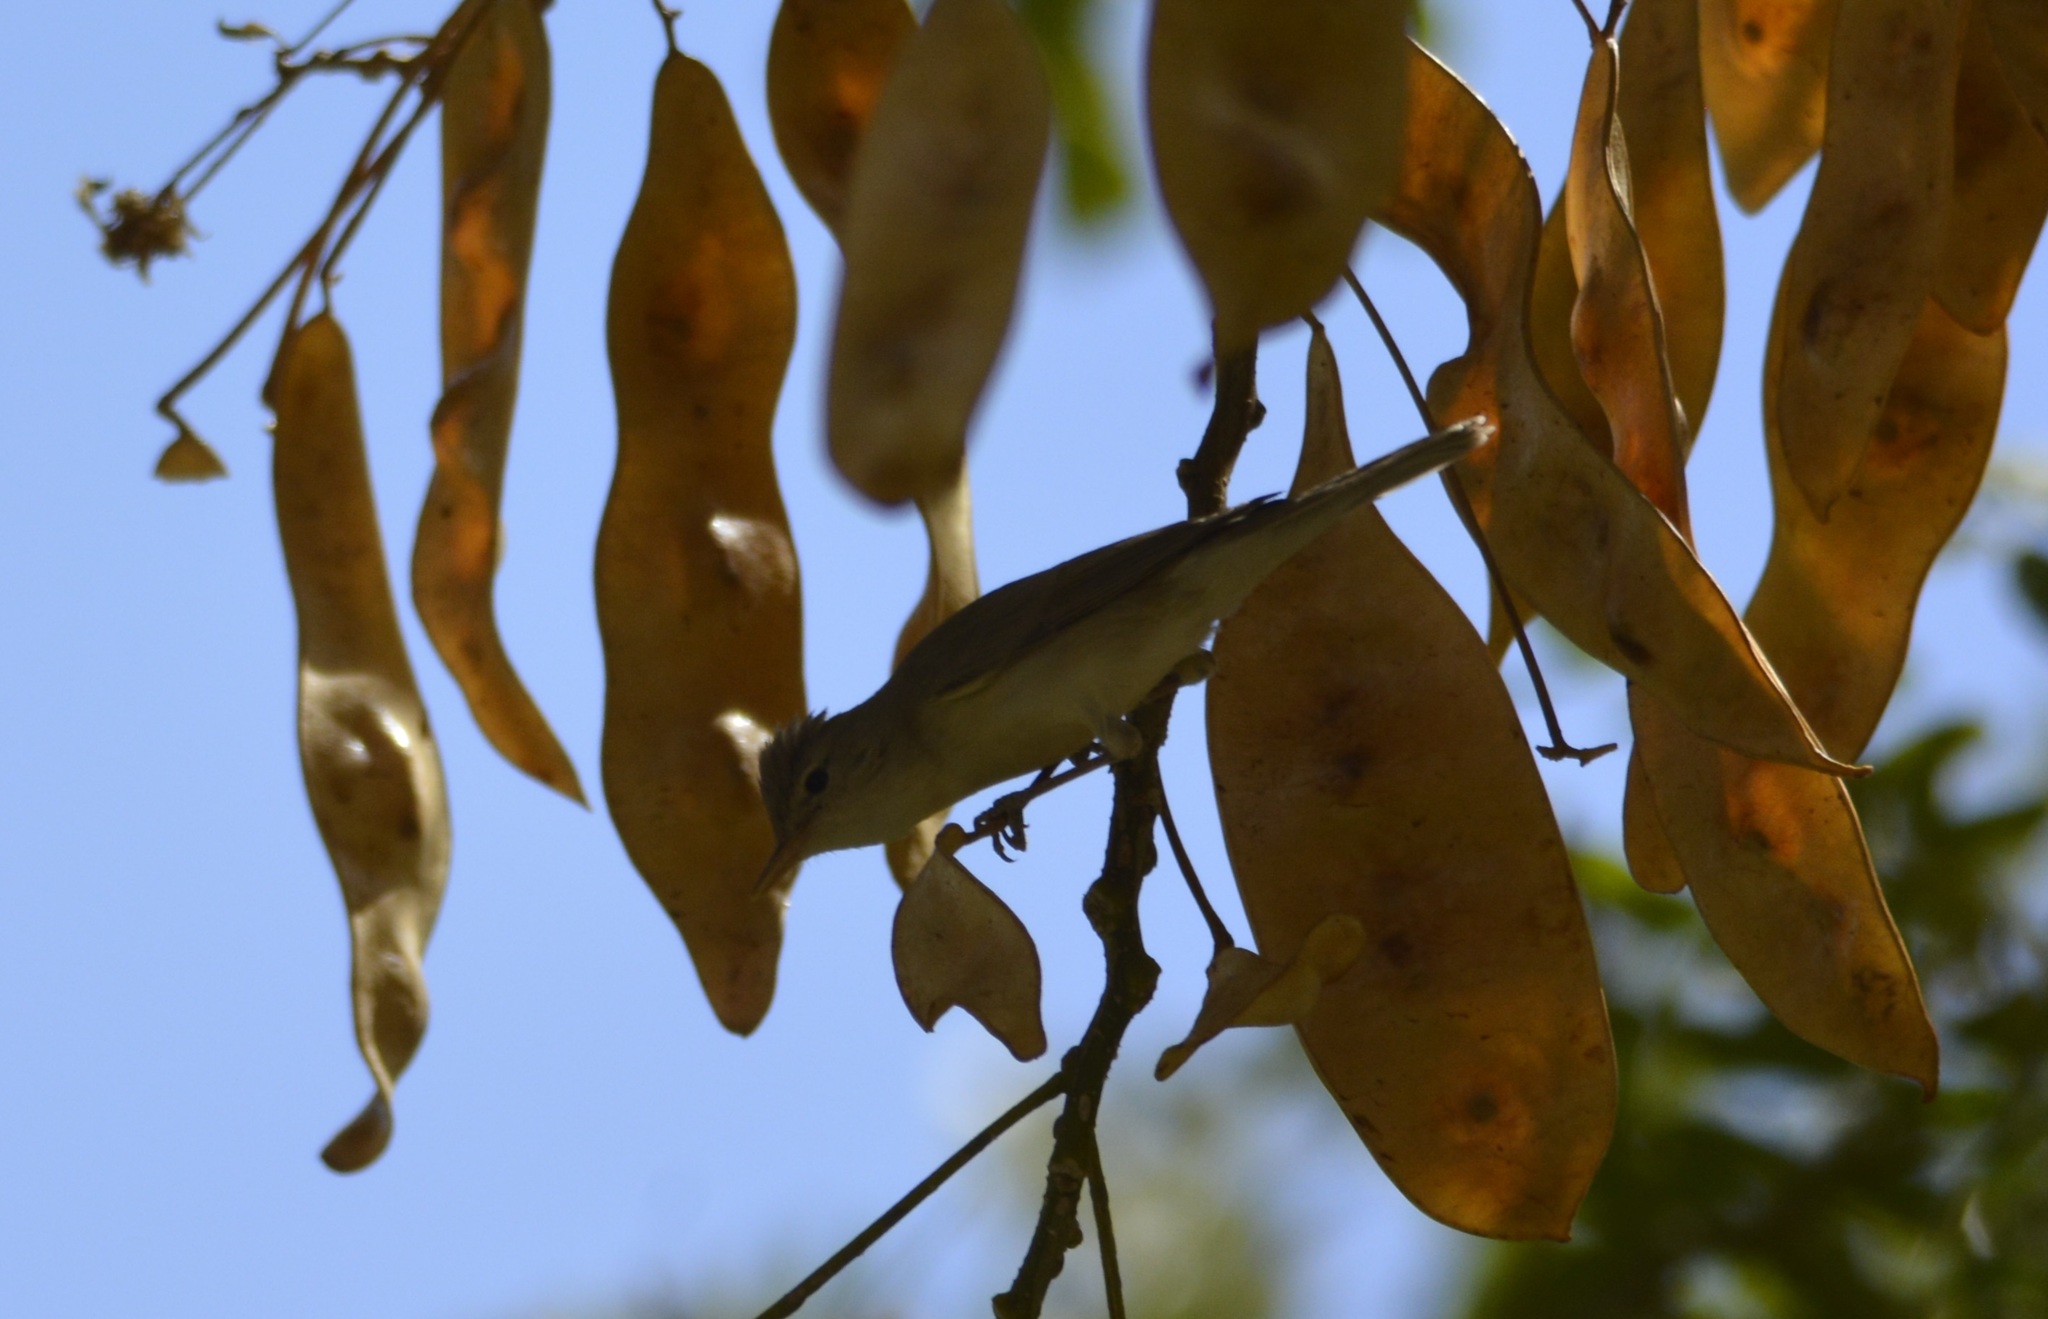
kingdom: Animalia
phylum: Chordata
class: Aves
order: Passeriformes
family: Acrocephalidae
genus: Iduna
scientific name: Iduna pallida
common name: Eastern olivaceous warbler
